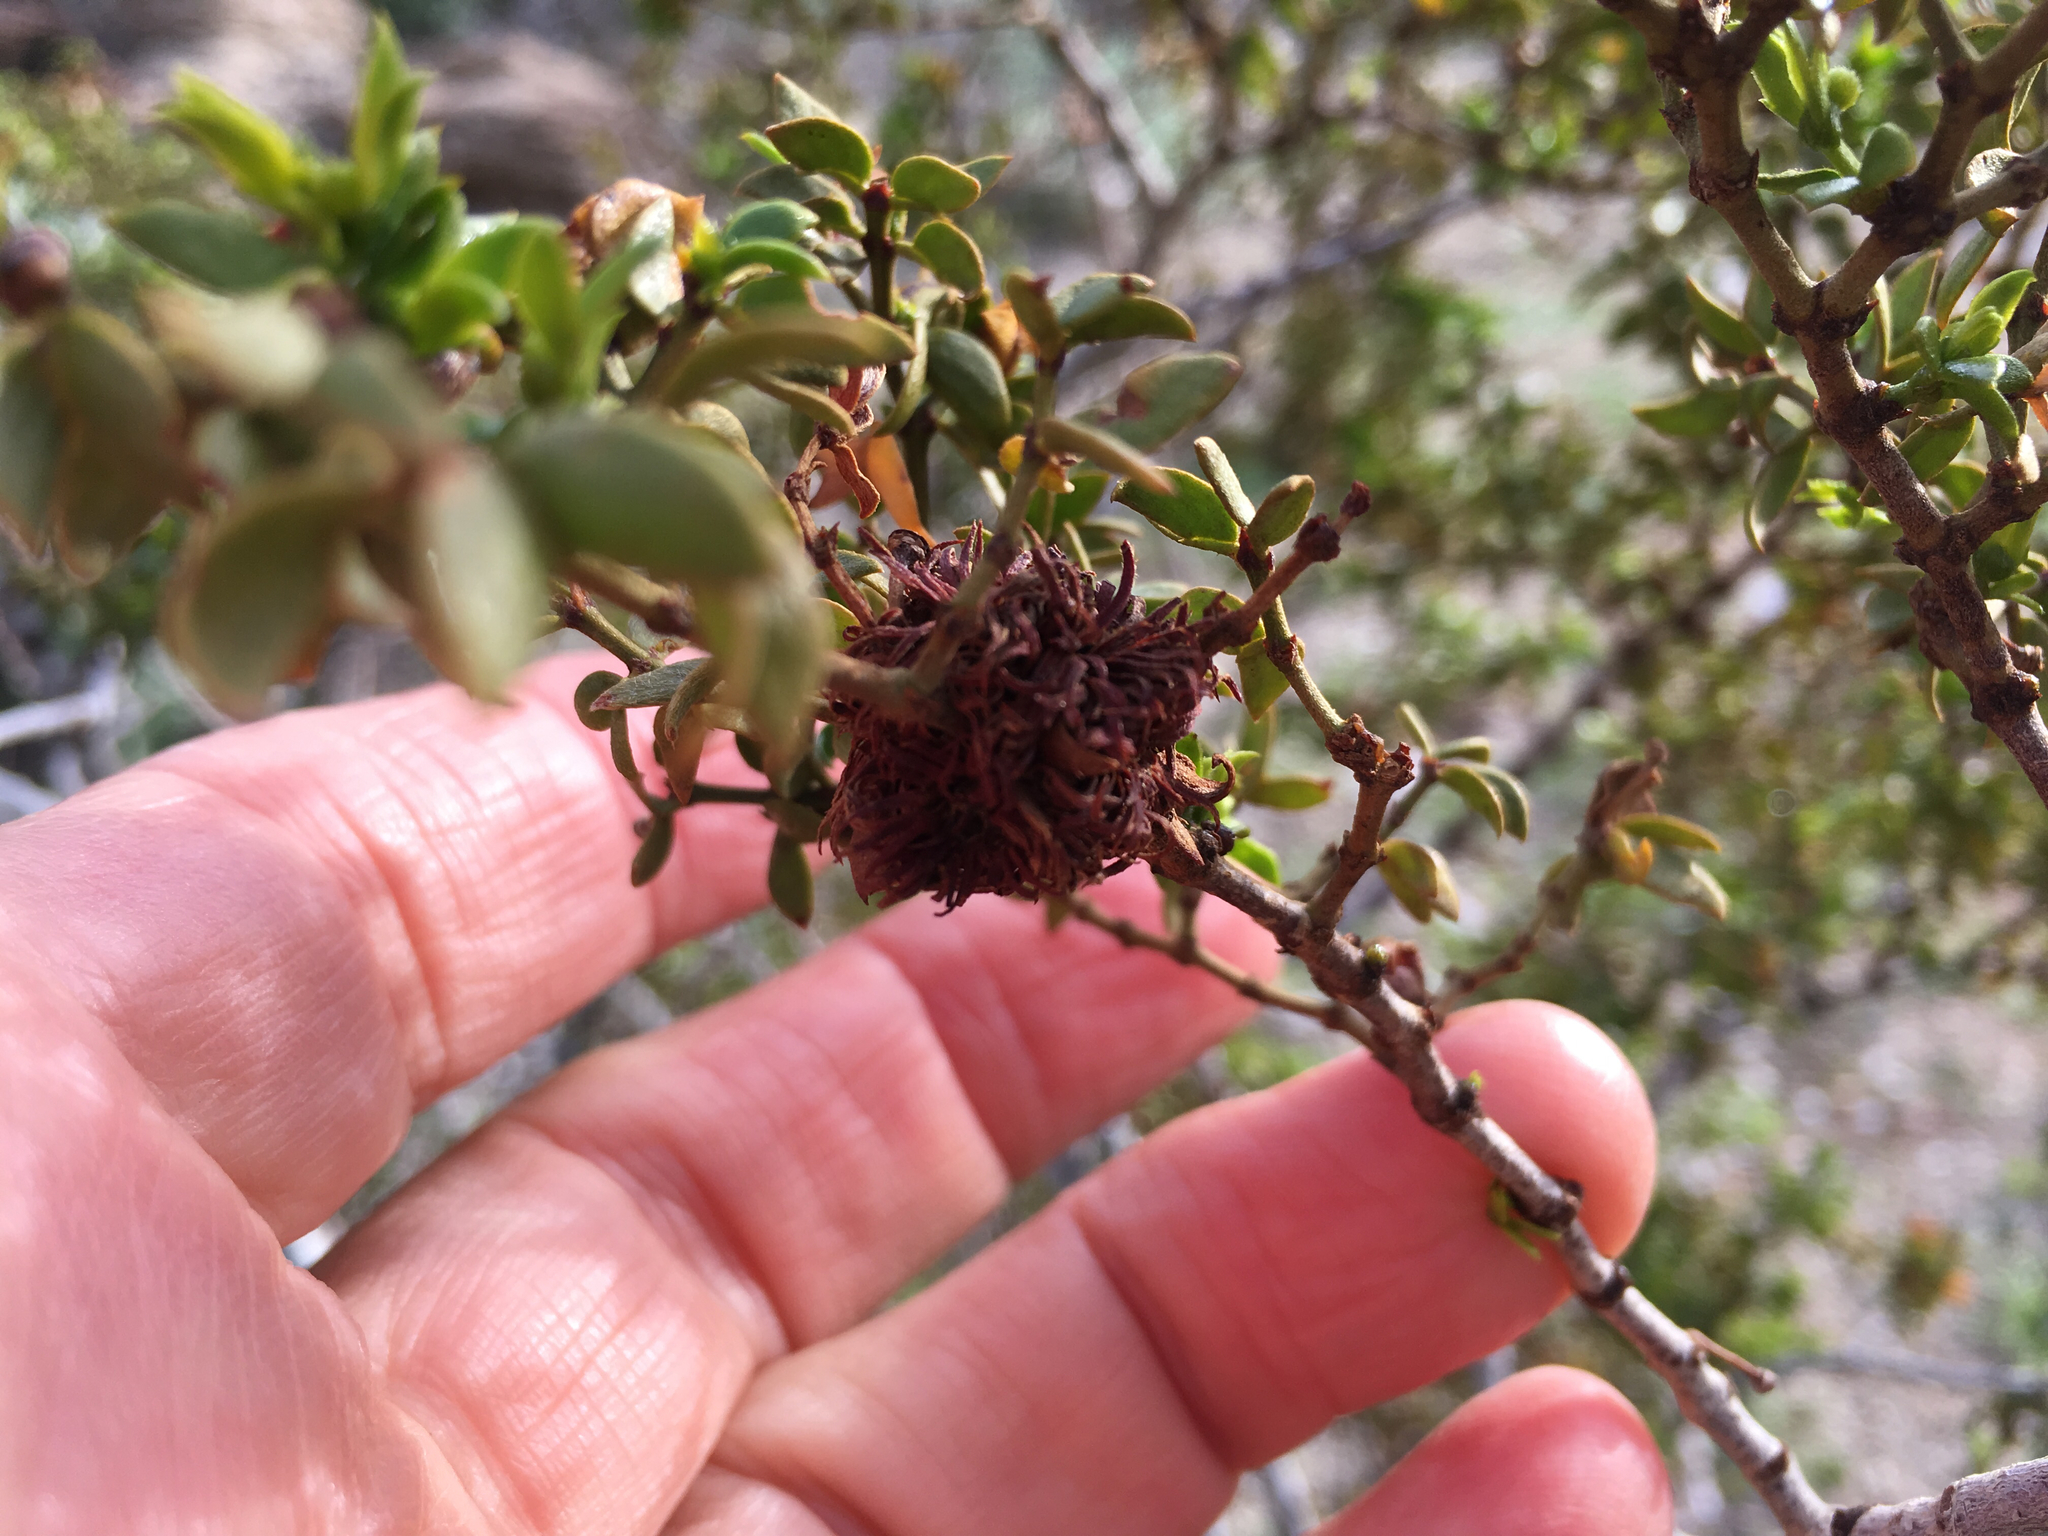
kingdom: Animalia
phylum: Arthropoda
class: Insecta
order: Diptera
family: Cecidomyiidae
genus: Asphondylia
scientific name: Asphondylia auripila
